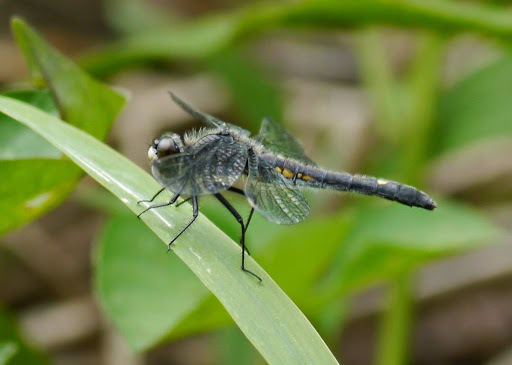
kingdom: Animalia
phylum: Arthropoda
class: Insecta
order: Odonata
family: Libellulidae
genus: Leucorrhinia
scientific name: Leucorrhinia intacta
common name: Dot-tailed whiteface
